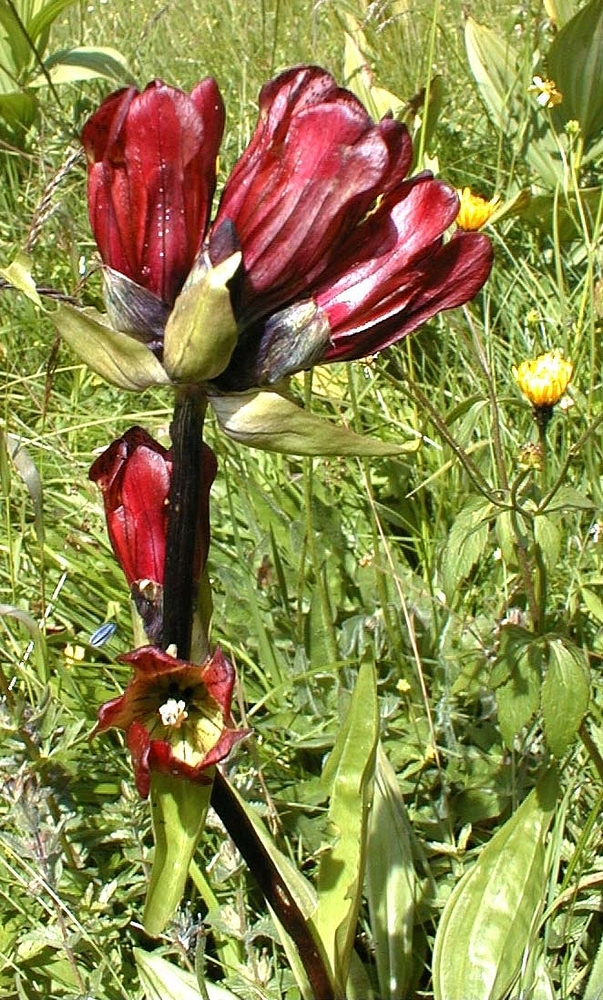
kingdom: Plantae
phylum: Tracheophyta
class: Magnoliopsida
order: Gentianales
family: Gentianaceae
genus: Gentiana
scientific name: Gentiana purpurea
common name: Purple gentian
